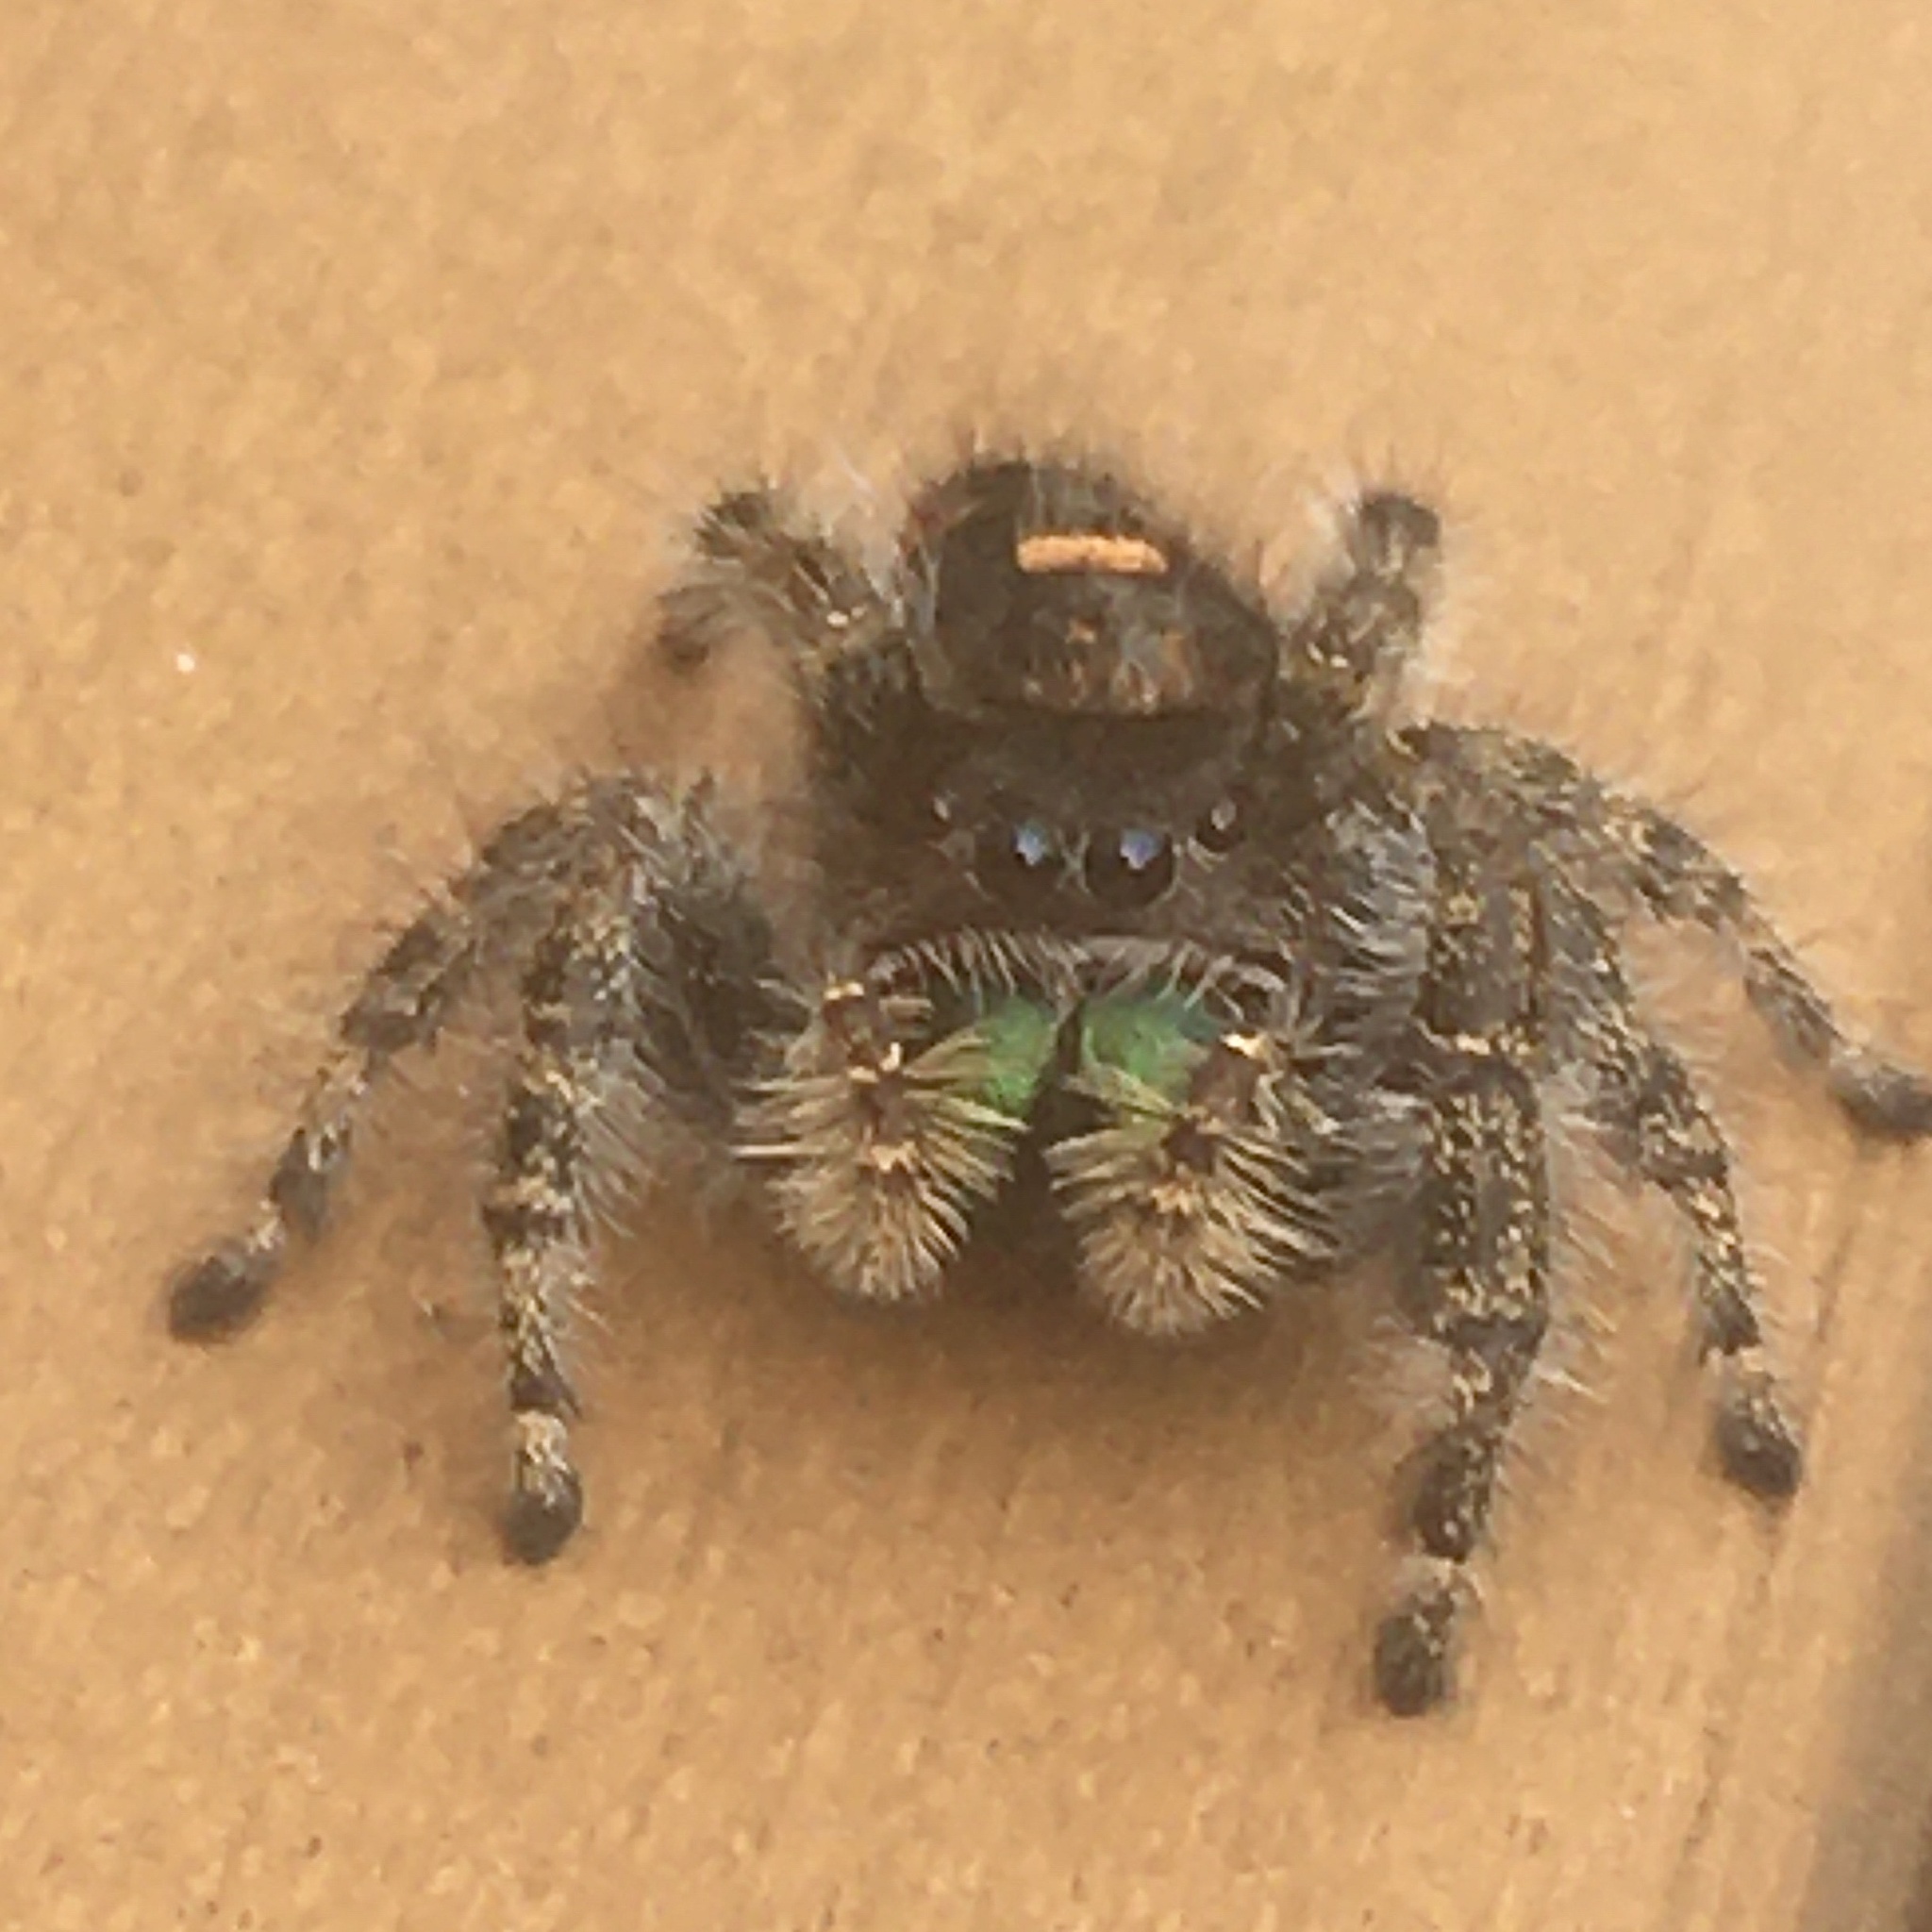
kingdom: Animalia
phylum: Arthropoda
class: Arachnida
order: Araneae
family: Salticidae
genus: Phidippus
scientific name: Phidippus audax
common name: Bold jumper
